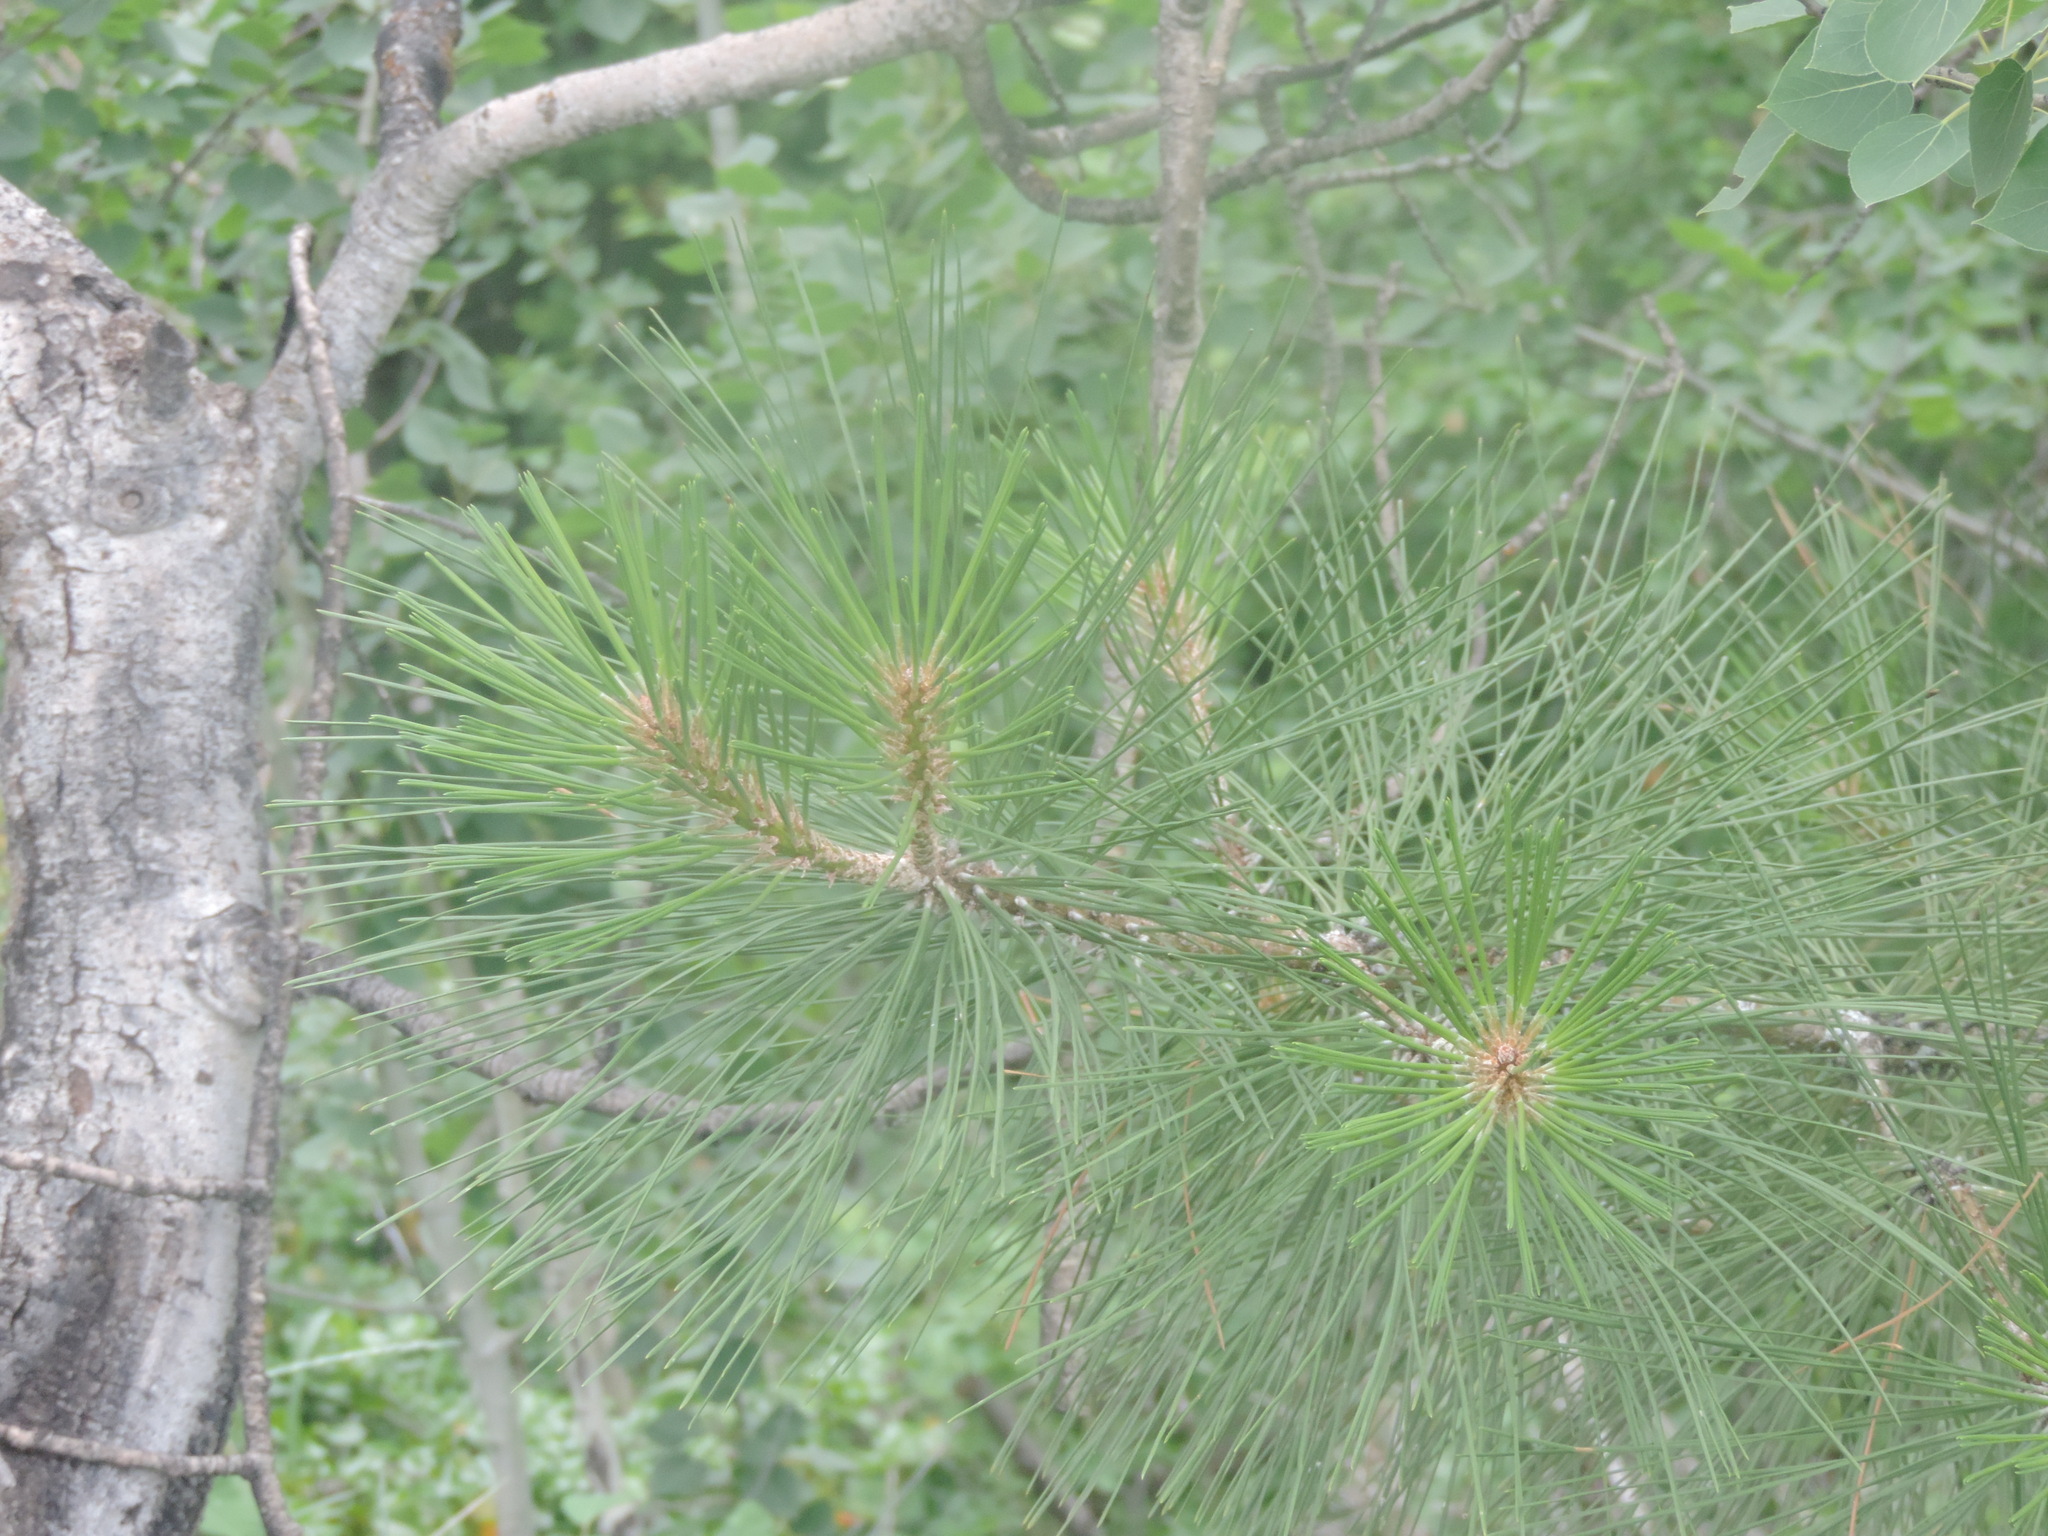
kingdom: Plantae
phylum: Tracheophyta
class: Pinopsida
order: Pinales
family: Pinaceae
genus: Pinus
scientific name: Pinus ponderosa
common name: Western yellow-pine
